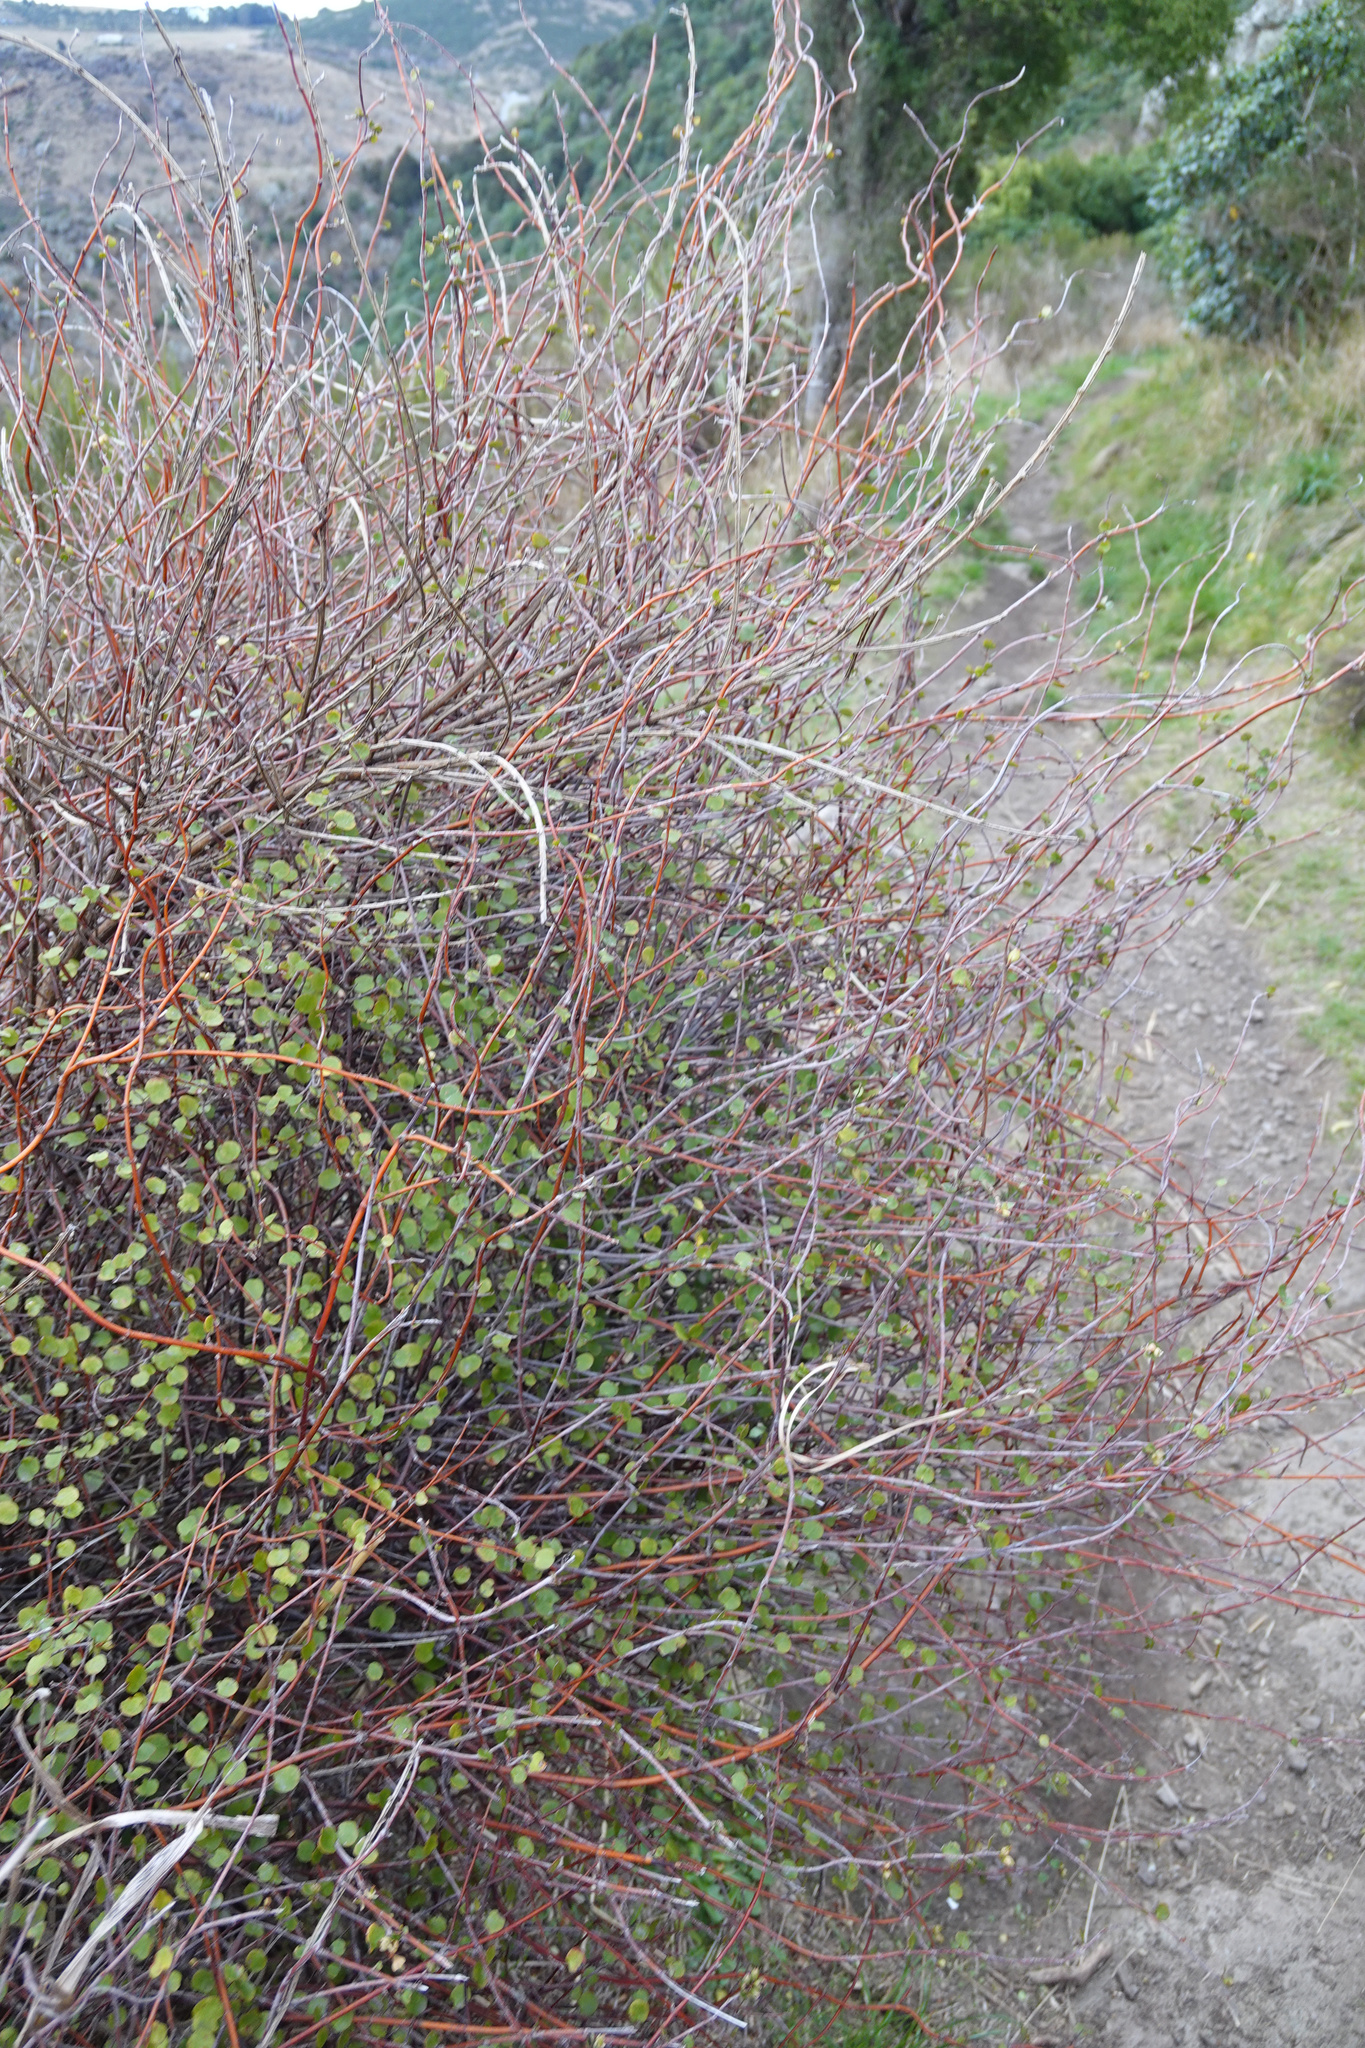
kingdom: Plantae
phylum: Tracheophyta
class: Magnoliopsida
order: Caryophyllales
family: Polygonaceae
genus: Muehlenbeckia
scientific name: Muehlenbeckia complexa
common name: Wireplant
